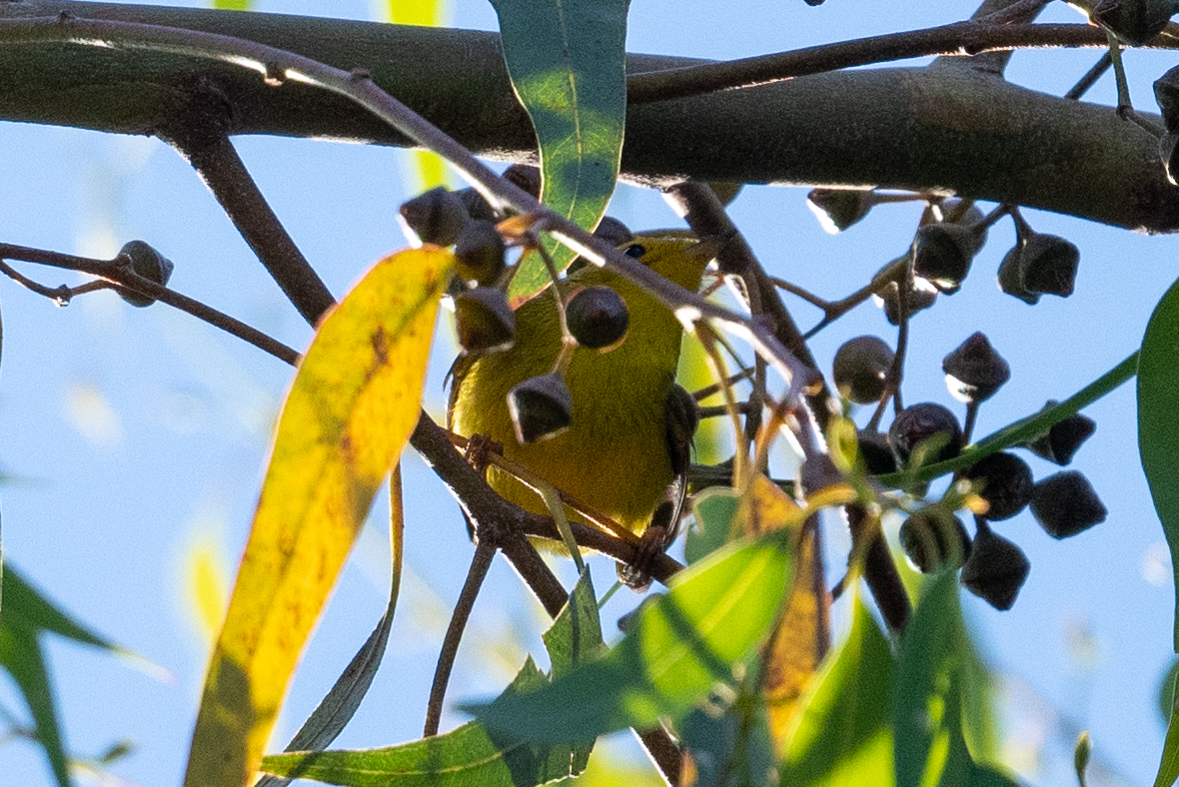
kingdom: Animalia
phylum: Chordata
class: Aves
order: Passeriformes
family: Parulidae
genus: Cardellina
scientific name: Cardellina pusilla
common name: Wilson's warbler
